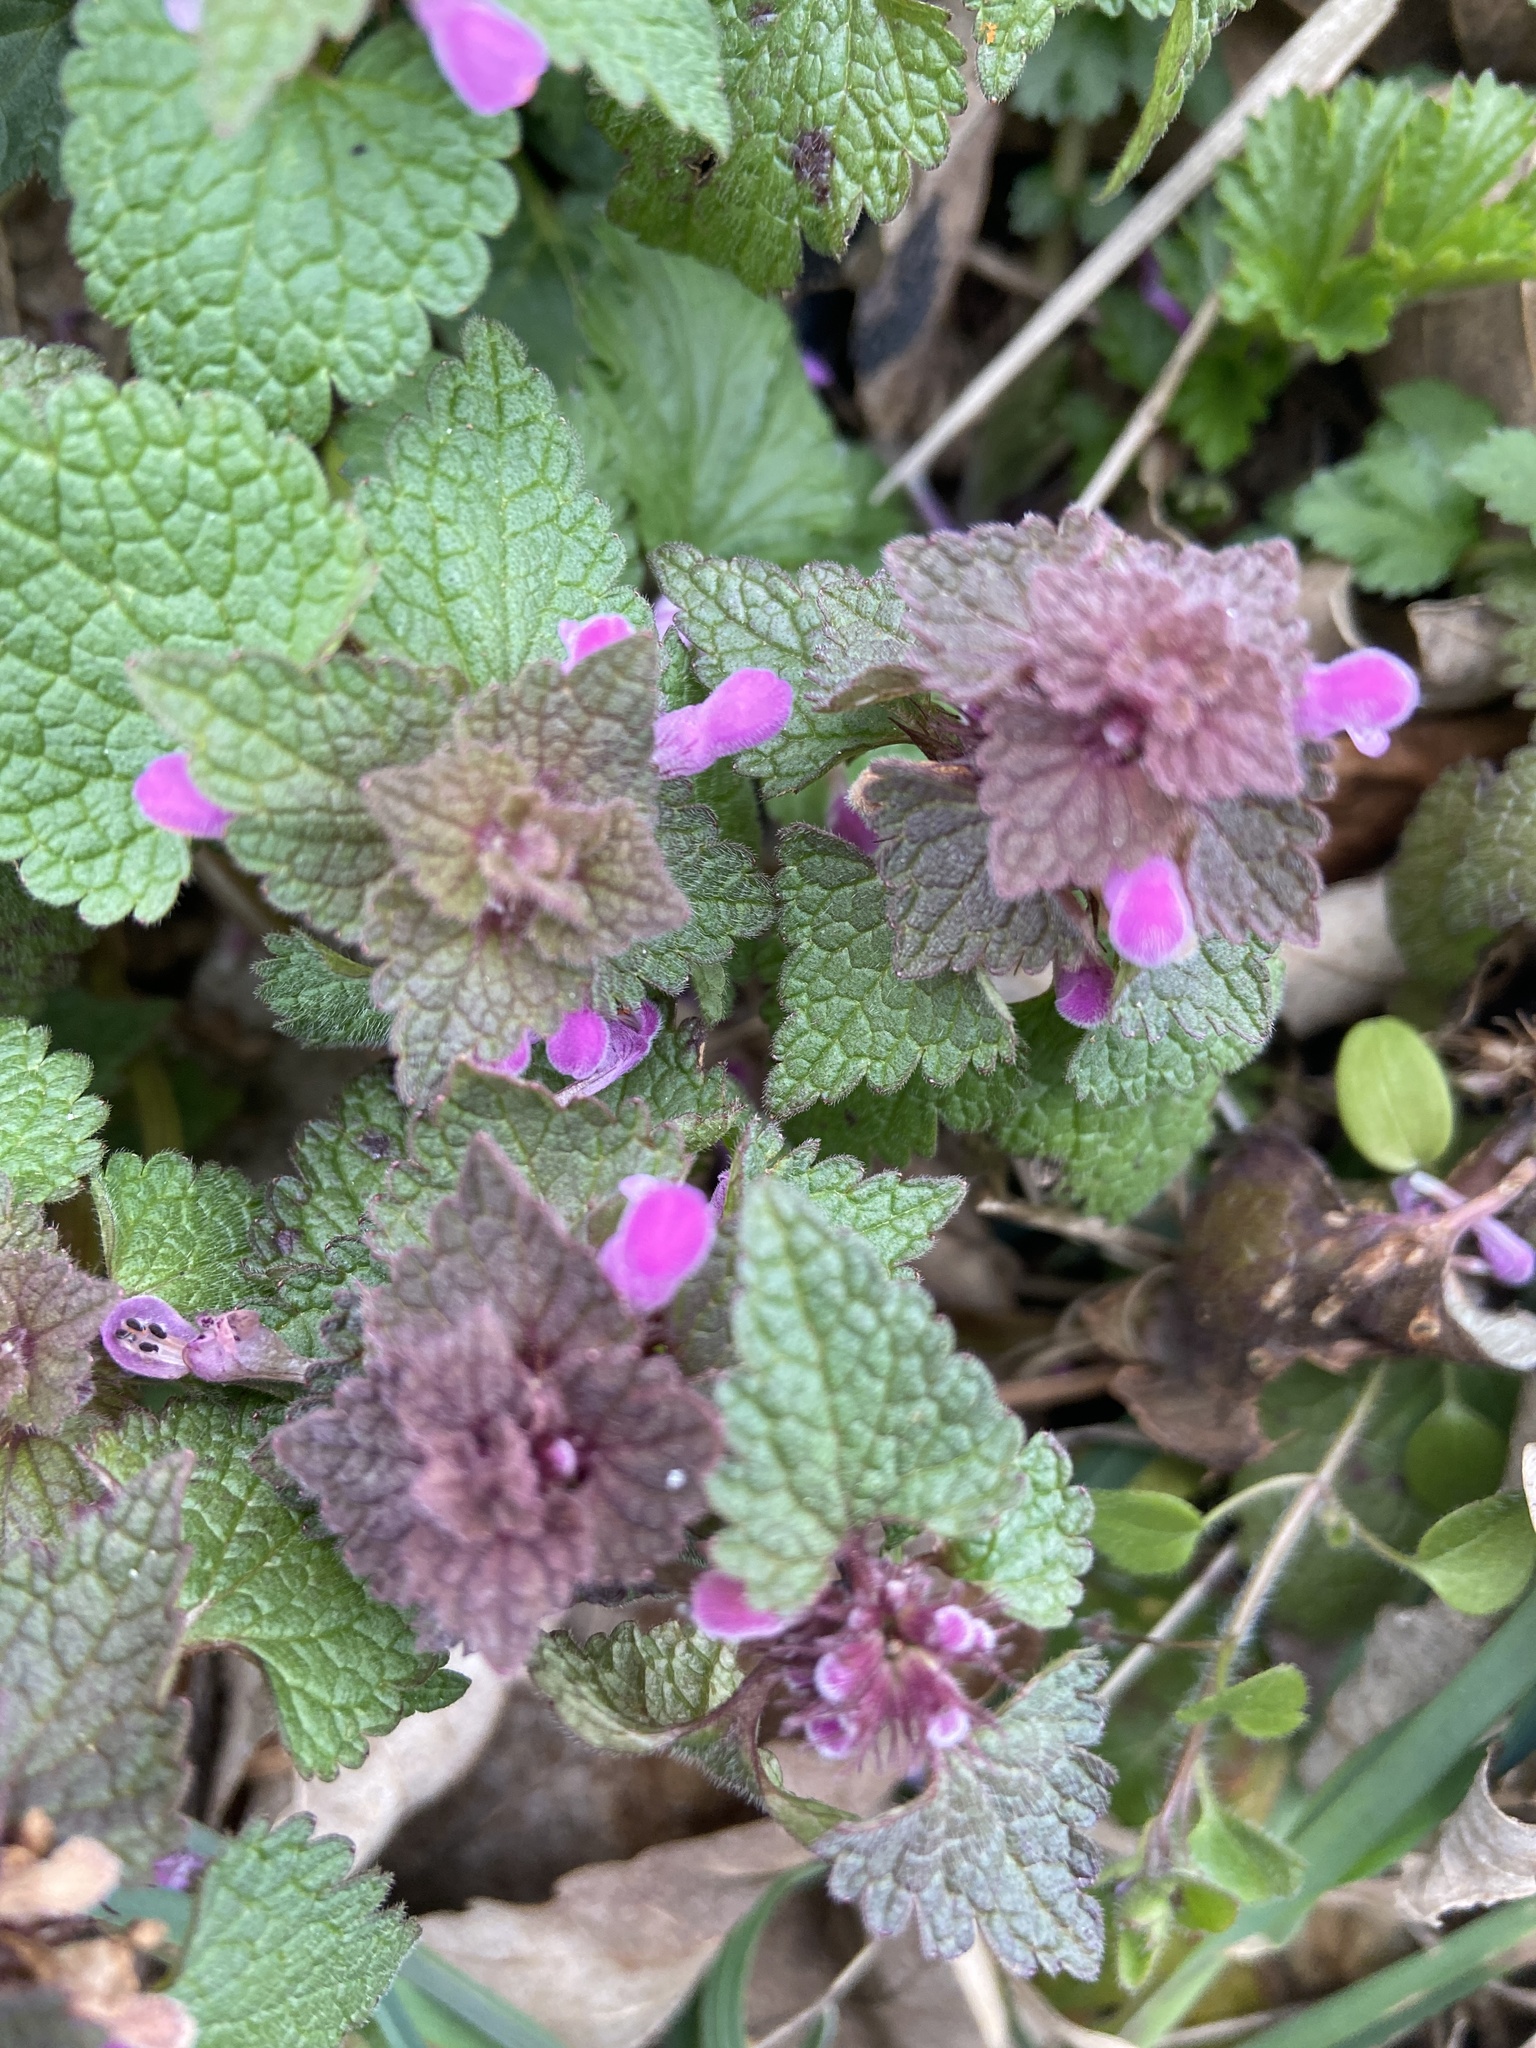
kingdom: Plantae
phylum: Tracheophyta
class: Magnoliopsida
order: Lamiales
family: Lamiaceae
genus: Lamium
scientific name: Lamium purpureum
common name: Red dead-nettle
